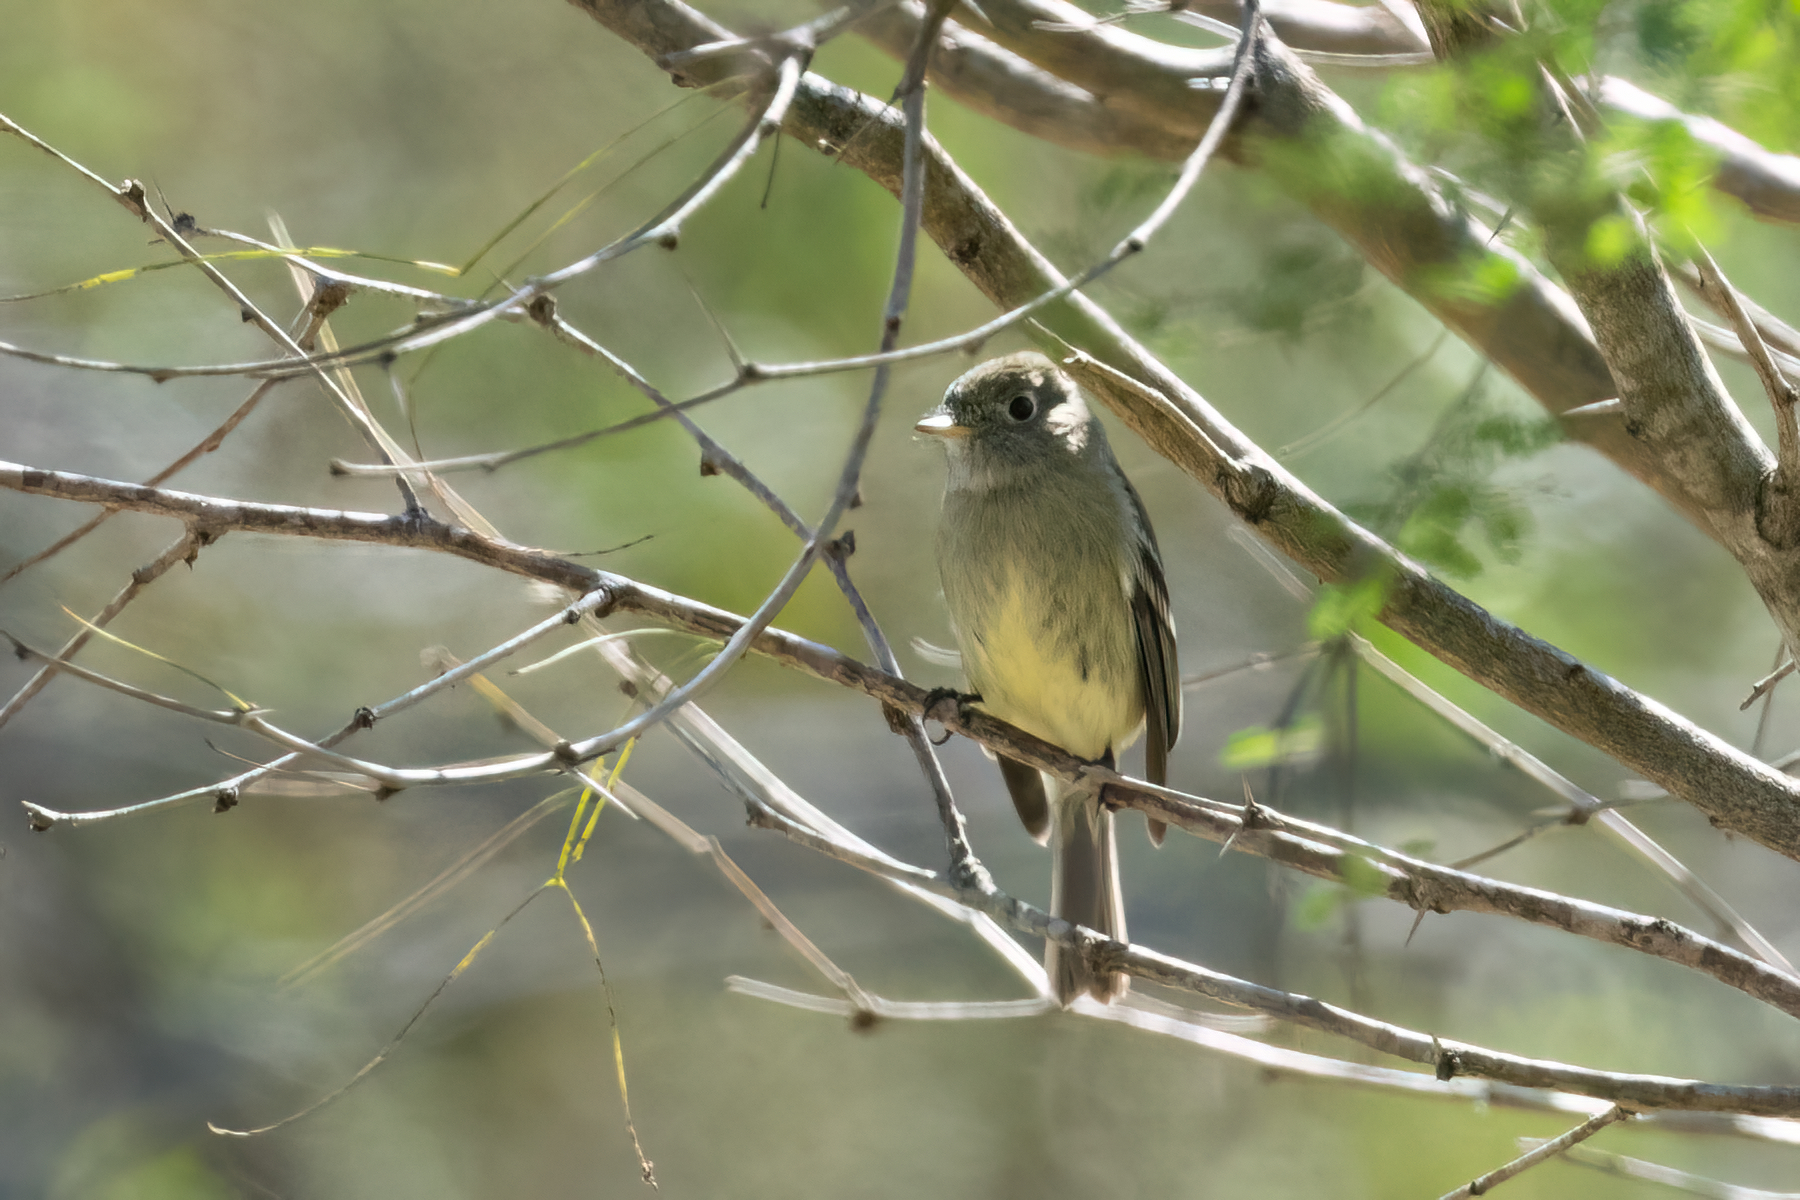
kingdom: Animalia
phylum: Chordata
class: Aves
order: Passeriformes
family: Tyrannidae
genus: Empidonax
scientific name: Empidonax hammondii
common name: Hammond's flycatcher
